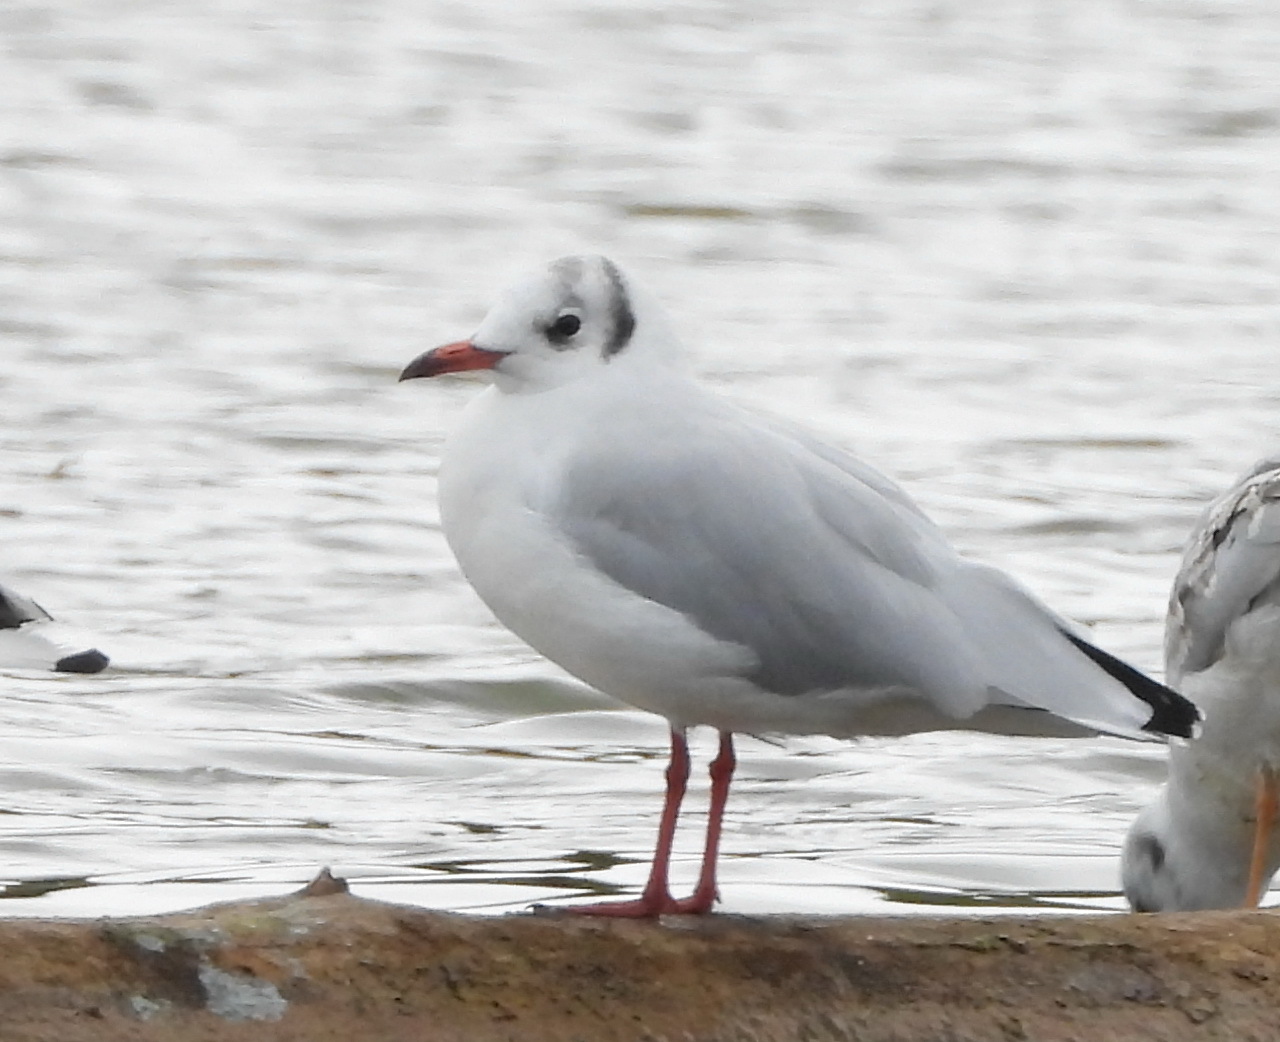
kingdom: Animalia
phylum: Chordata
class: Aves
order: Charadriiformes
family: Laridae
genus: Chroicocephalus
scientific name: Chroicocephalus ridibundus
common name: Black-headed gull
